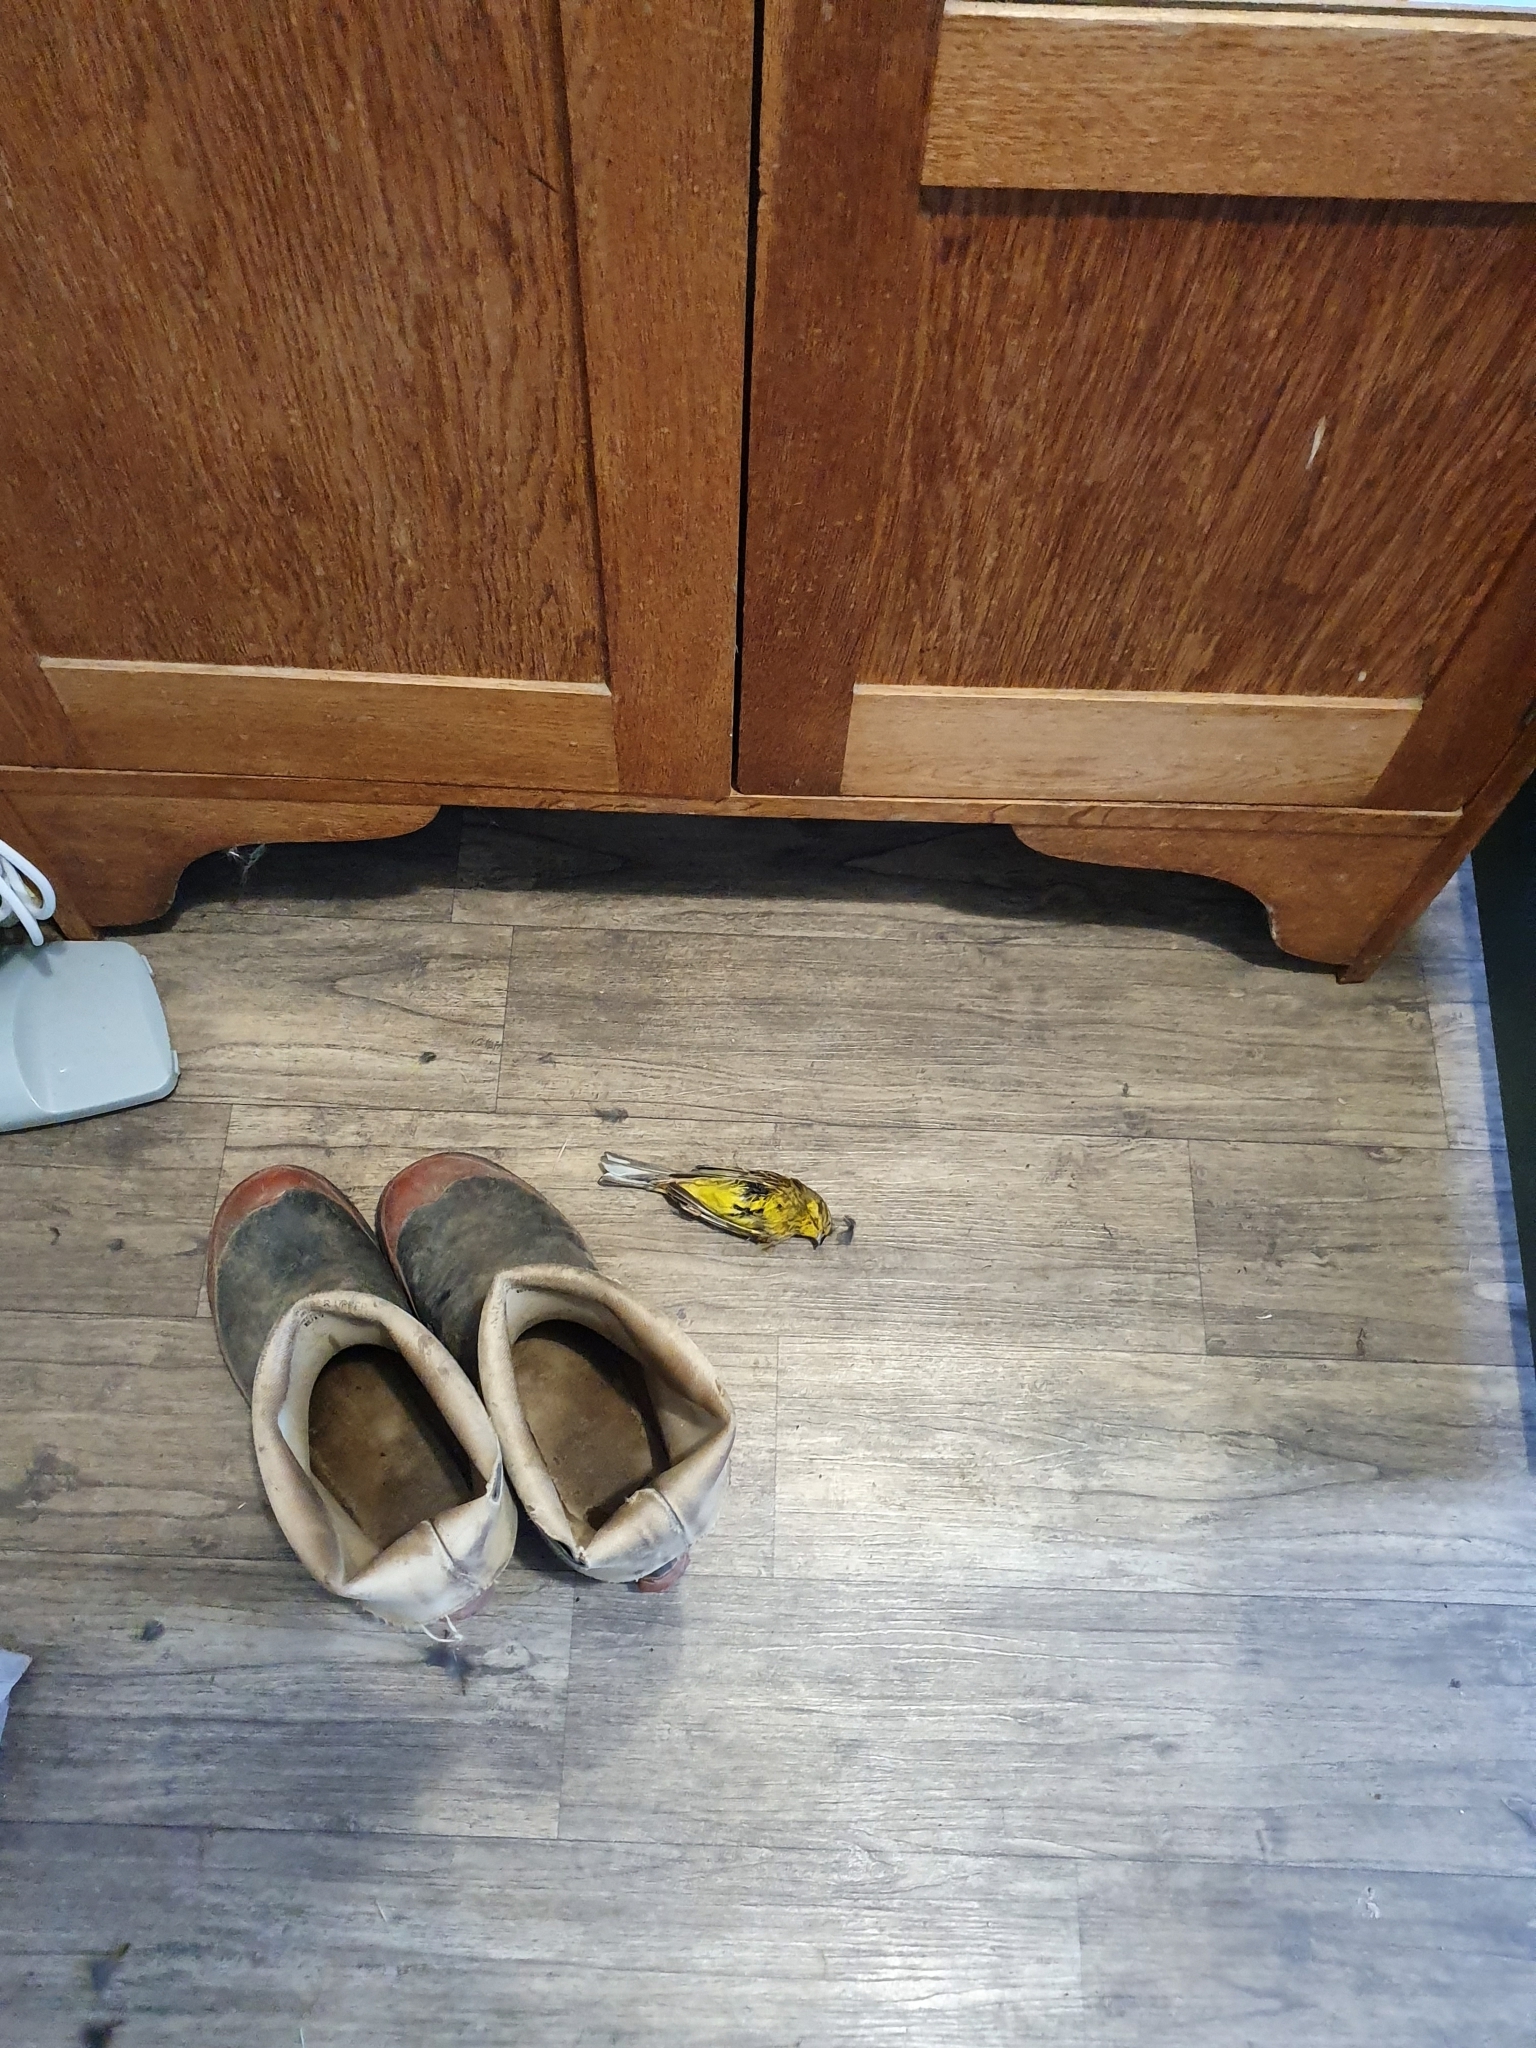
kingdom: Animalia
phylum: Chordata
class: Aves
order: Passeriformes
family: Emberizidae
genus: Emberiza
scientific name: Emberiza citrinella
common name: Yellowhammer
